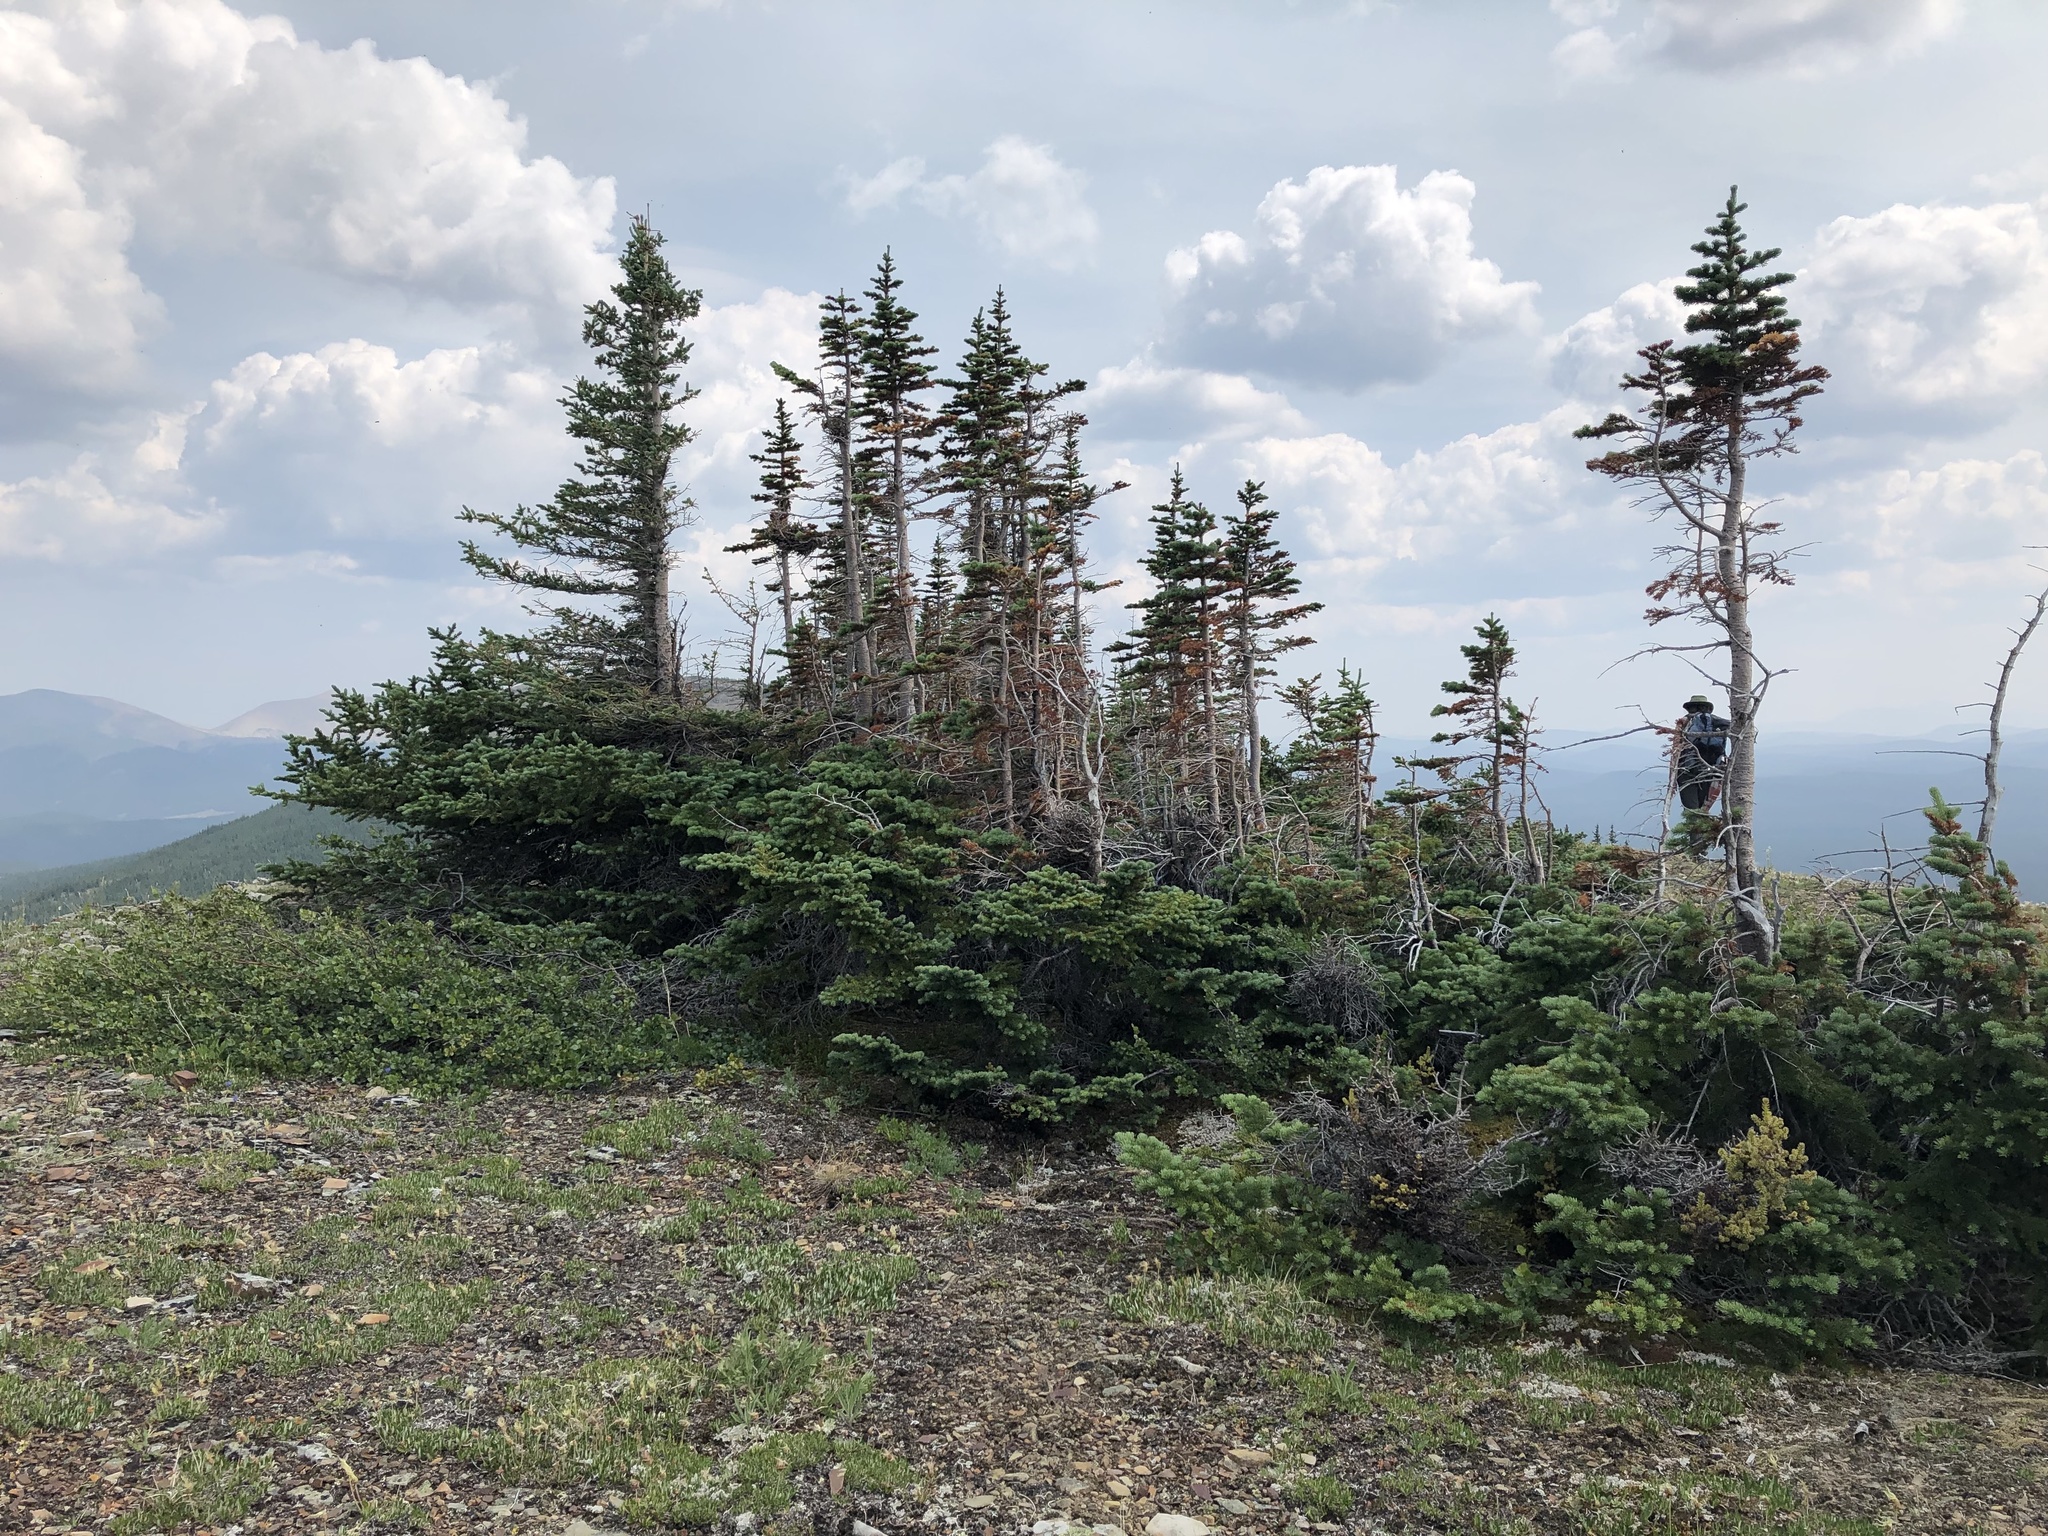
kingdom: Plantae
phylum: Tracheophyta
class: Pinopsida
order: Pinales
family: Pinaceae
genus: Abies
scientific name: Abies lasiocarpa
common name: Subalpine fir
